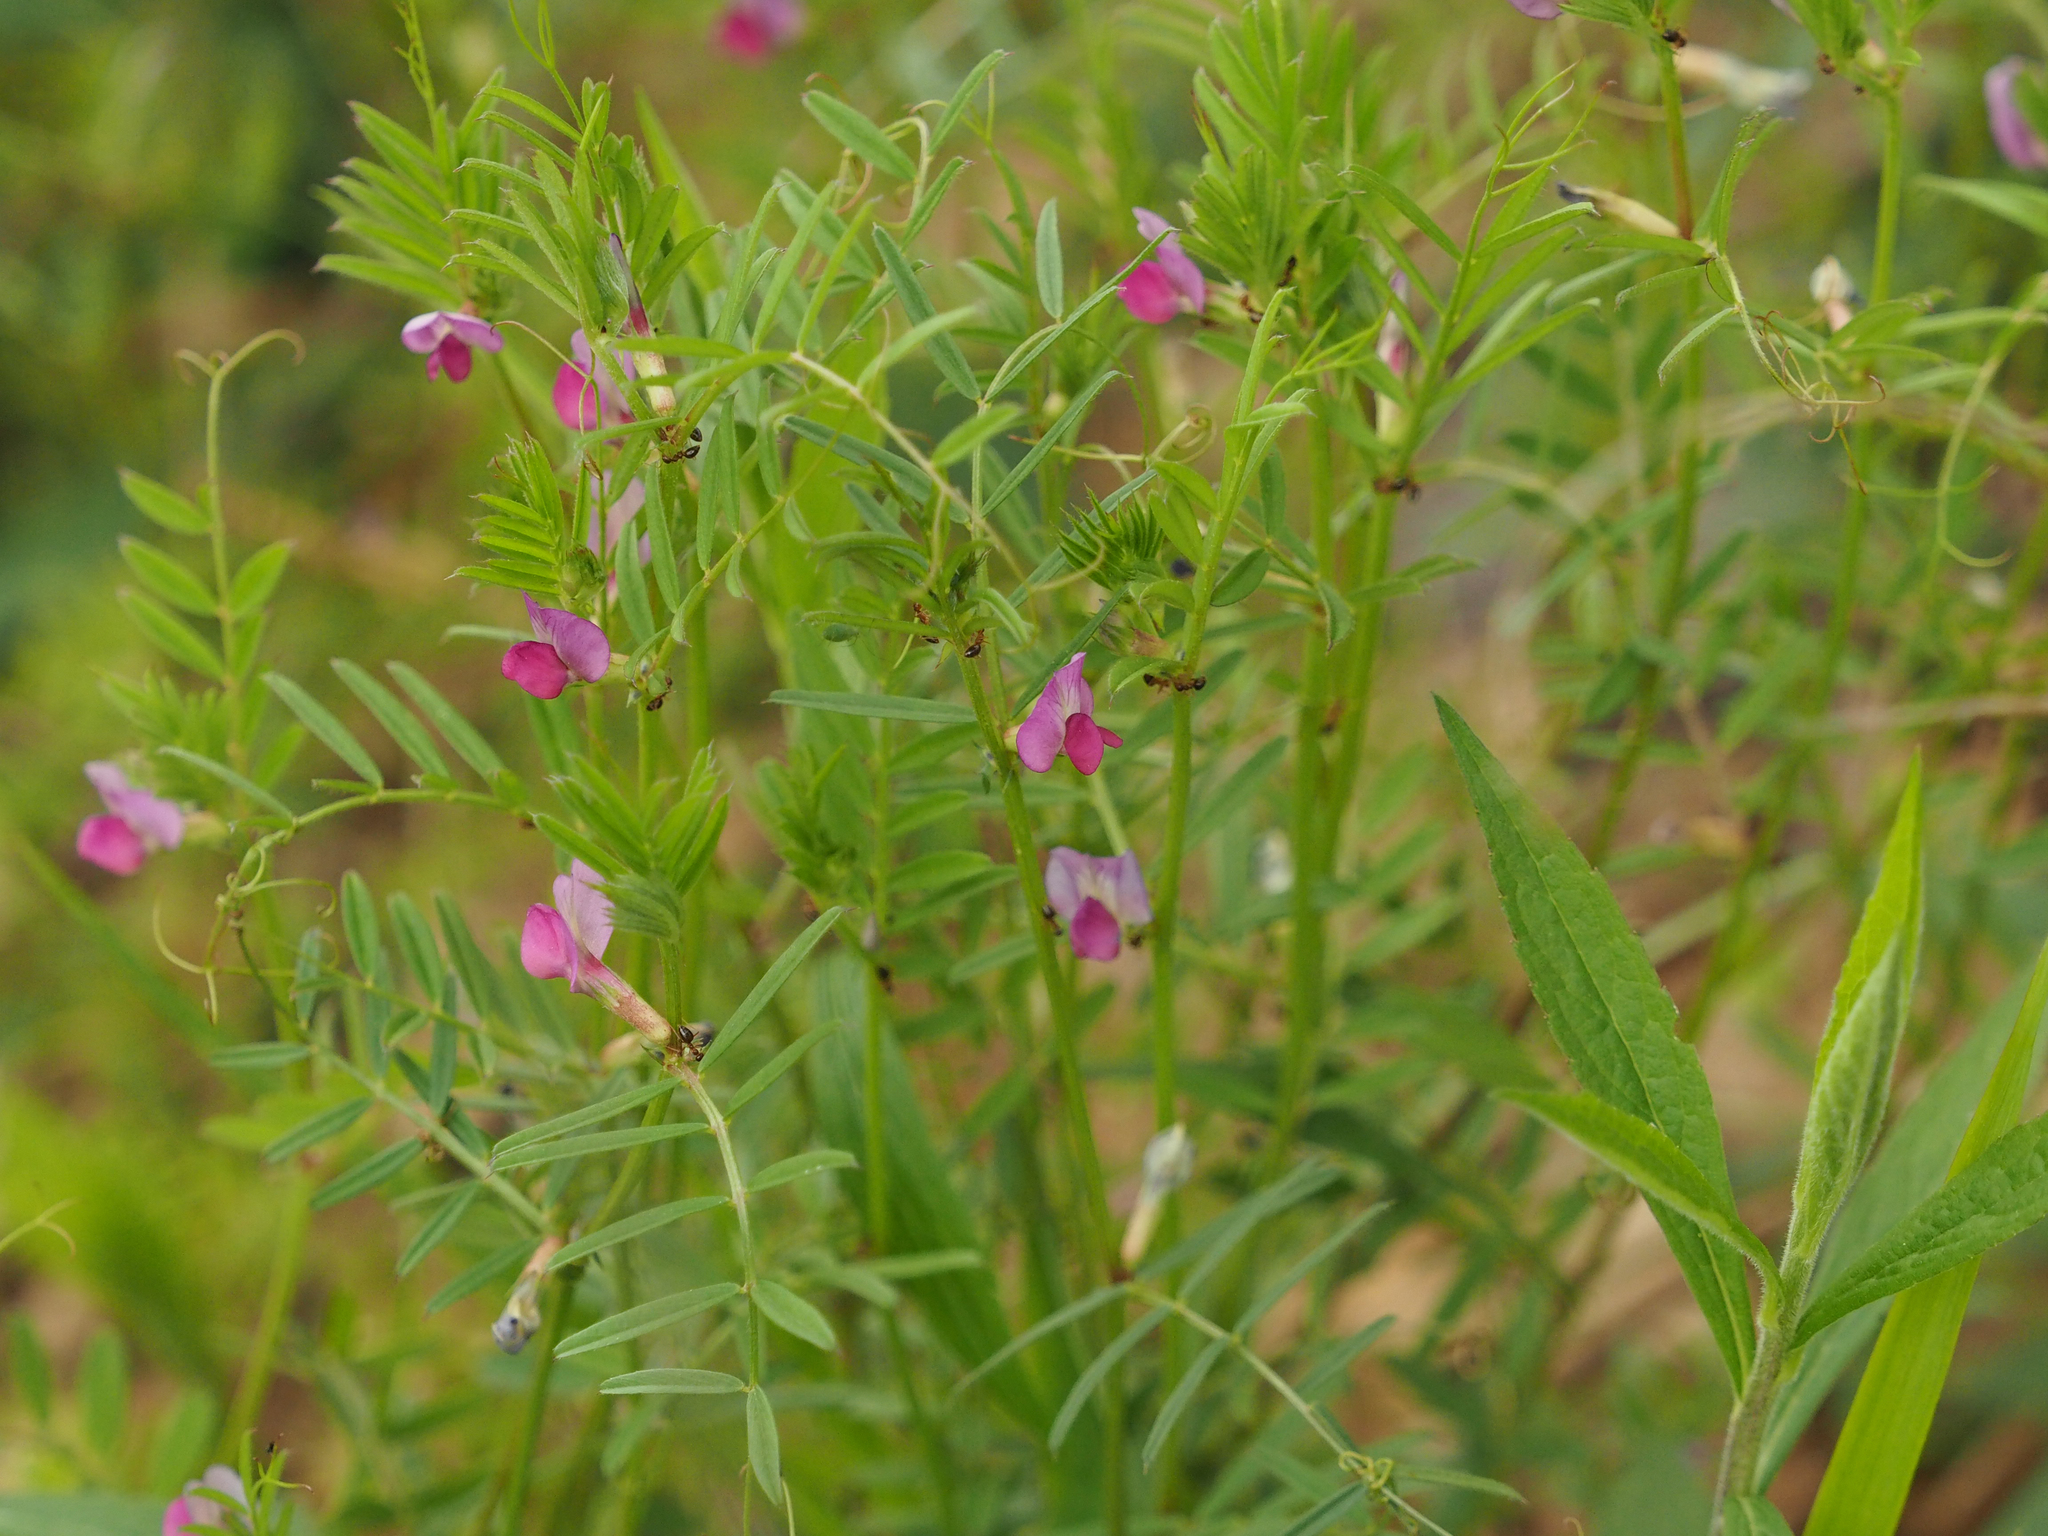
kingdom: Plantae
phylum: Tracheophyta
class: Magnoliopsida
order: Fabales
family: Fabaceae
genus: Vicia
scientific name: Vicia sativa
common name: Garden vetch
